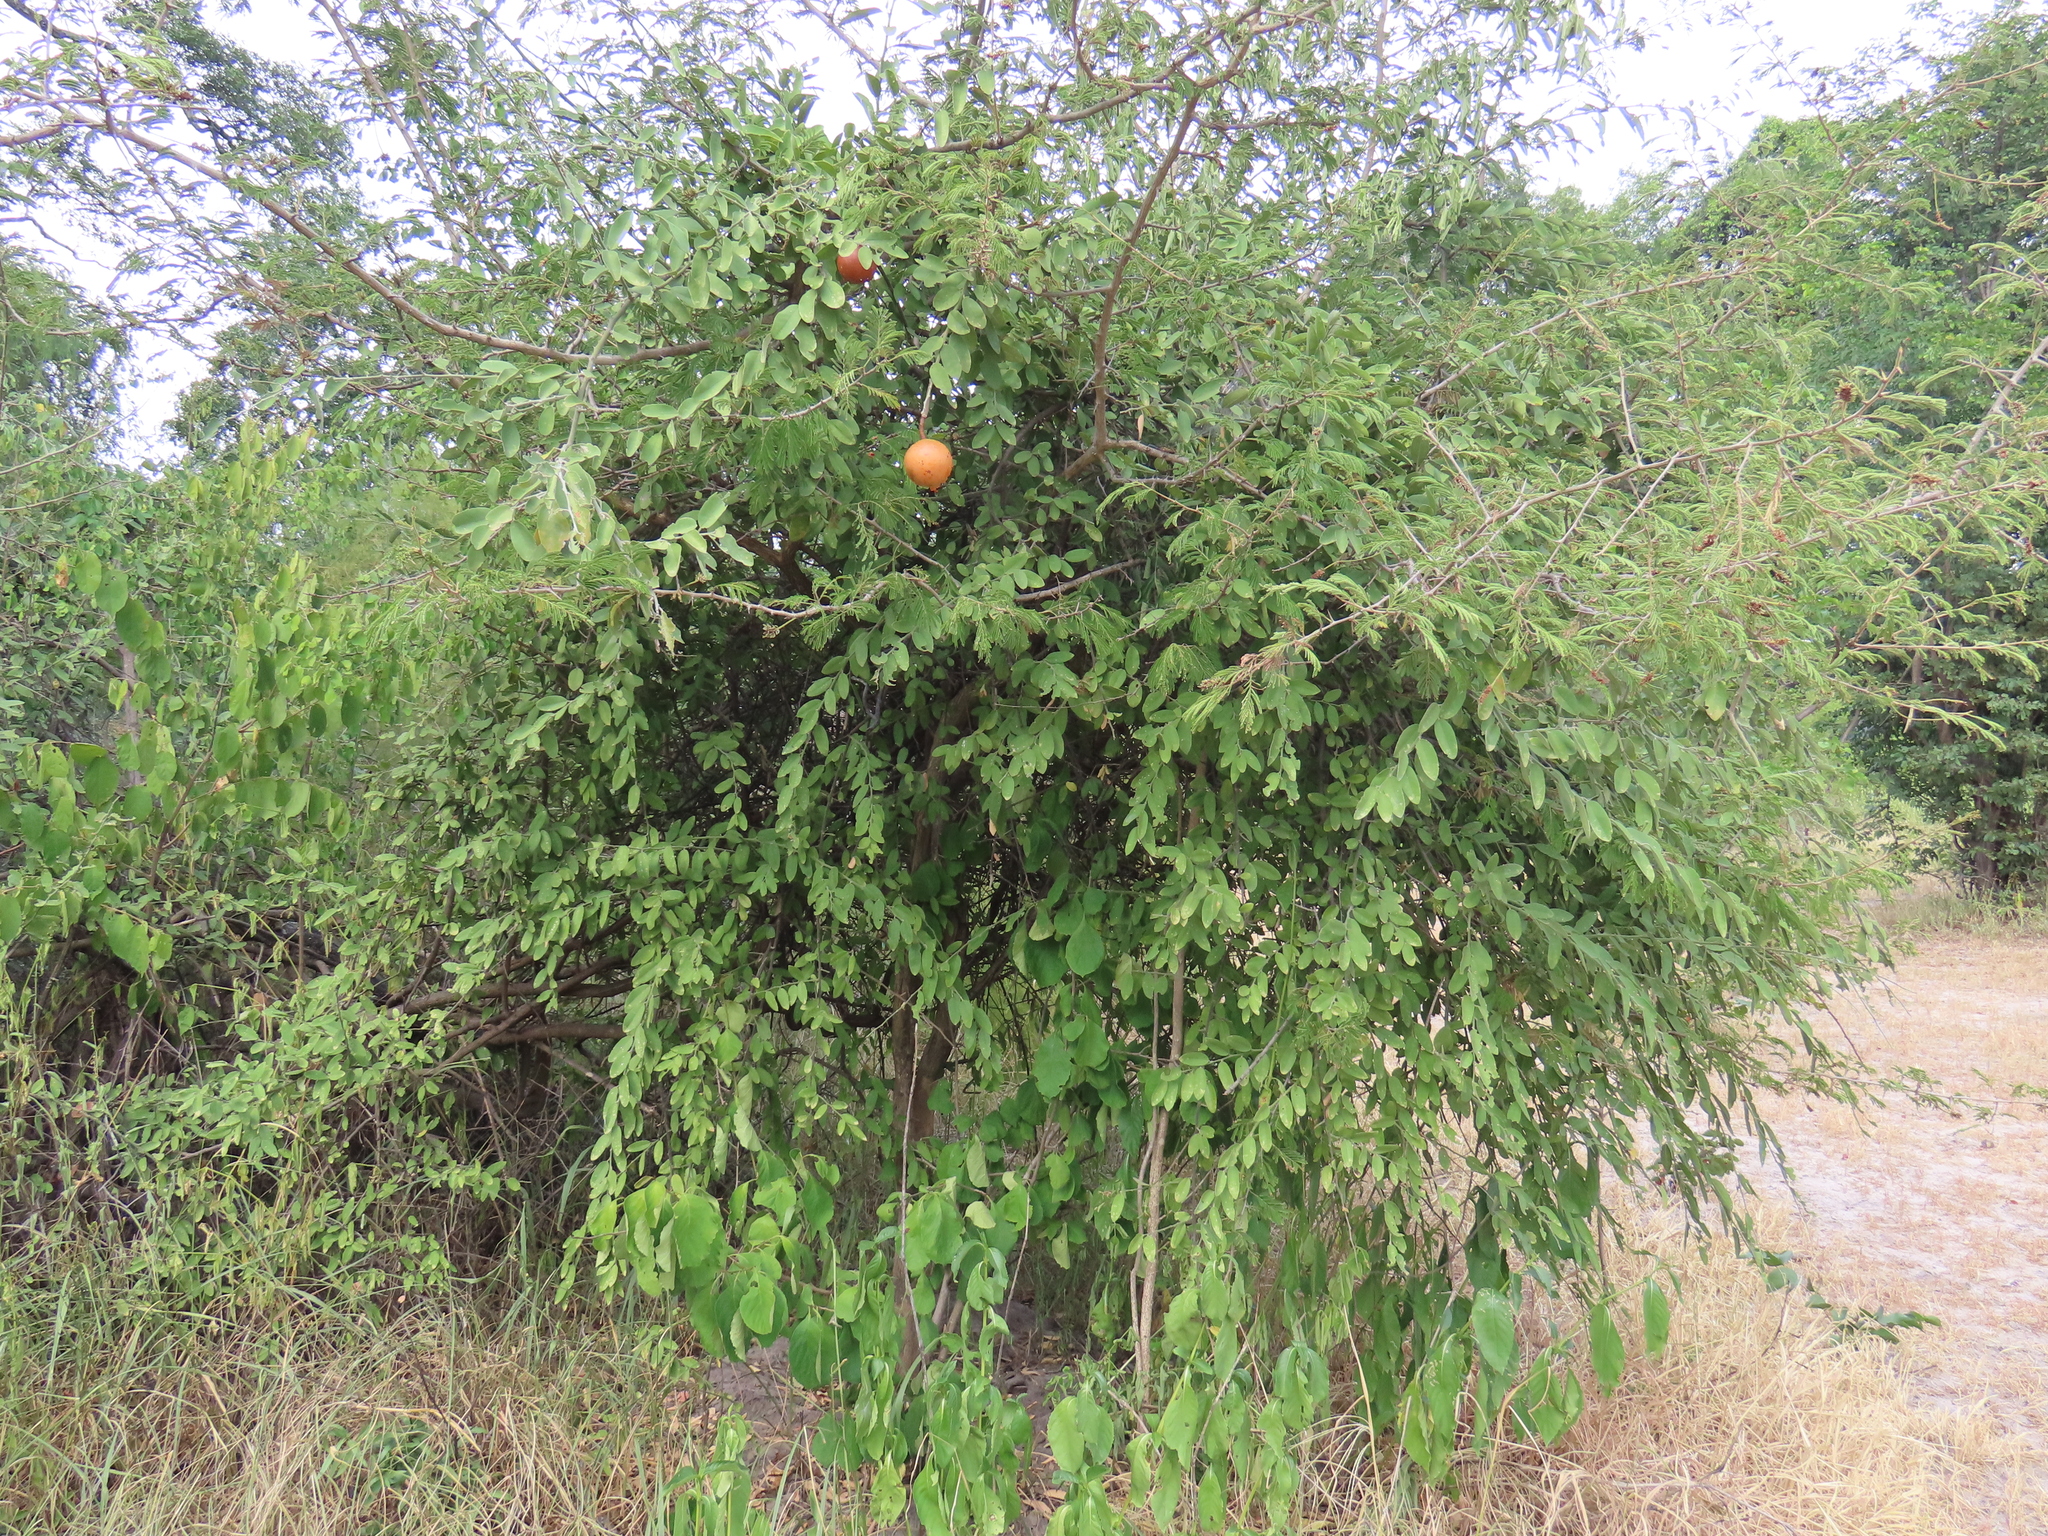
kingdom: Plantae
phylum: Tracheophyta
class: Magnoliopsida
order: Brassicales
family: Capparaceae
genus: Capparis
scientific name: Capparis tomentosa
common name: African caper
